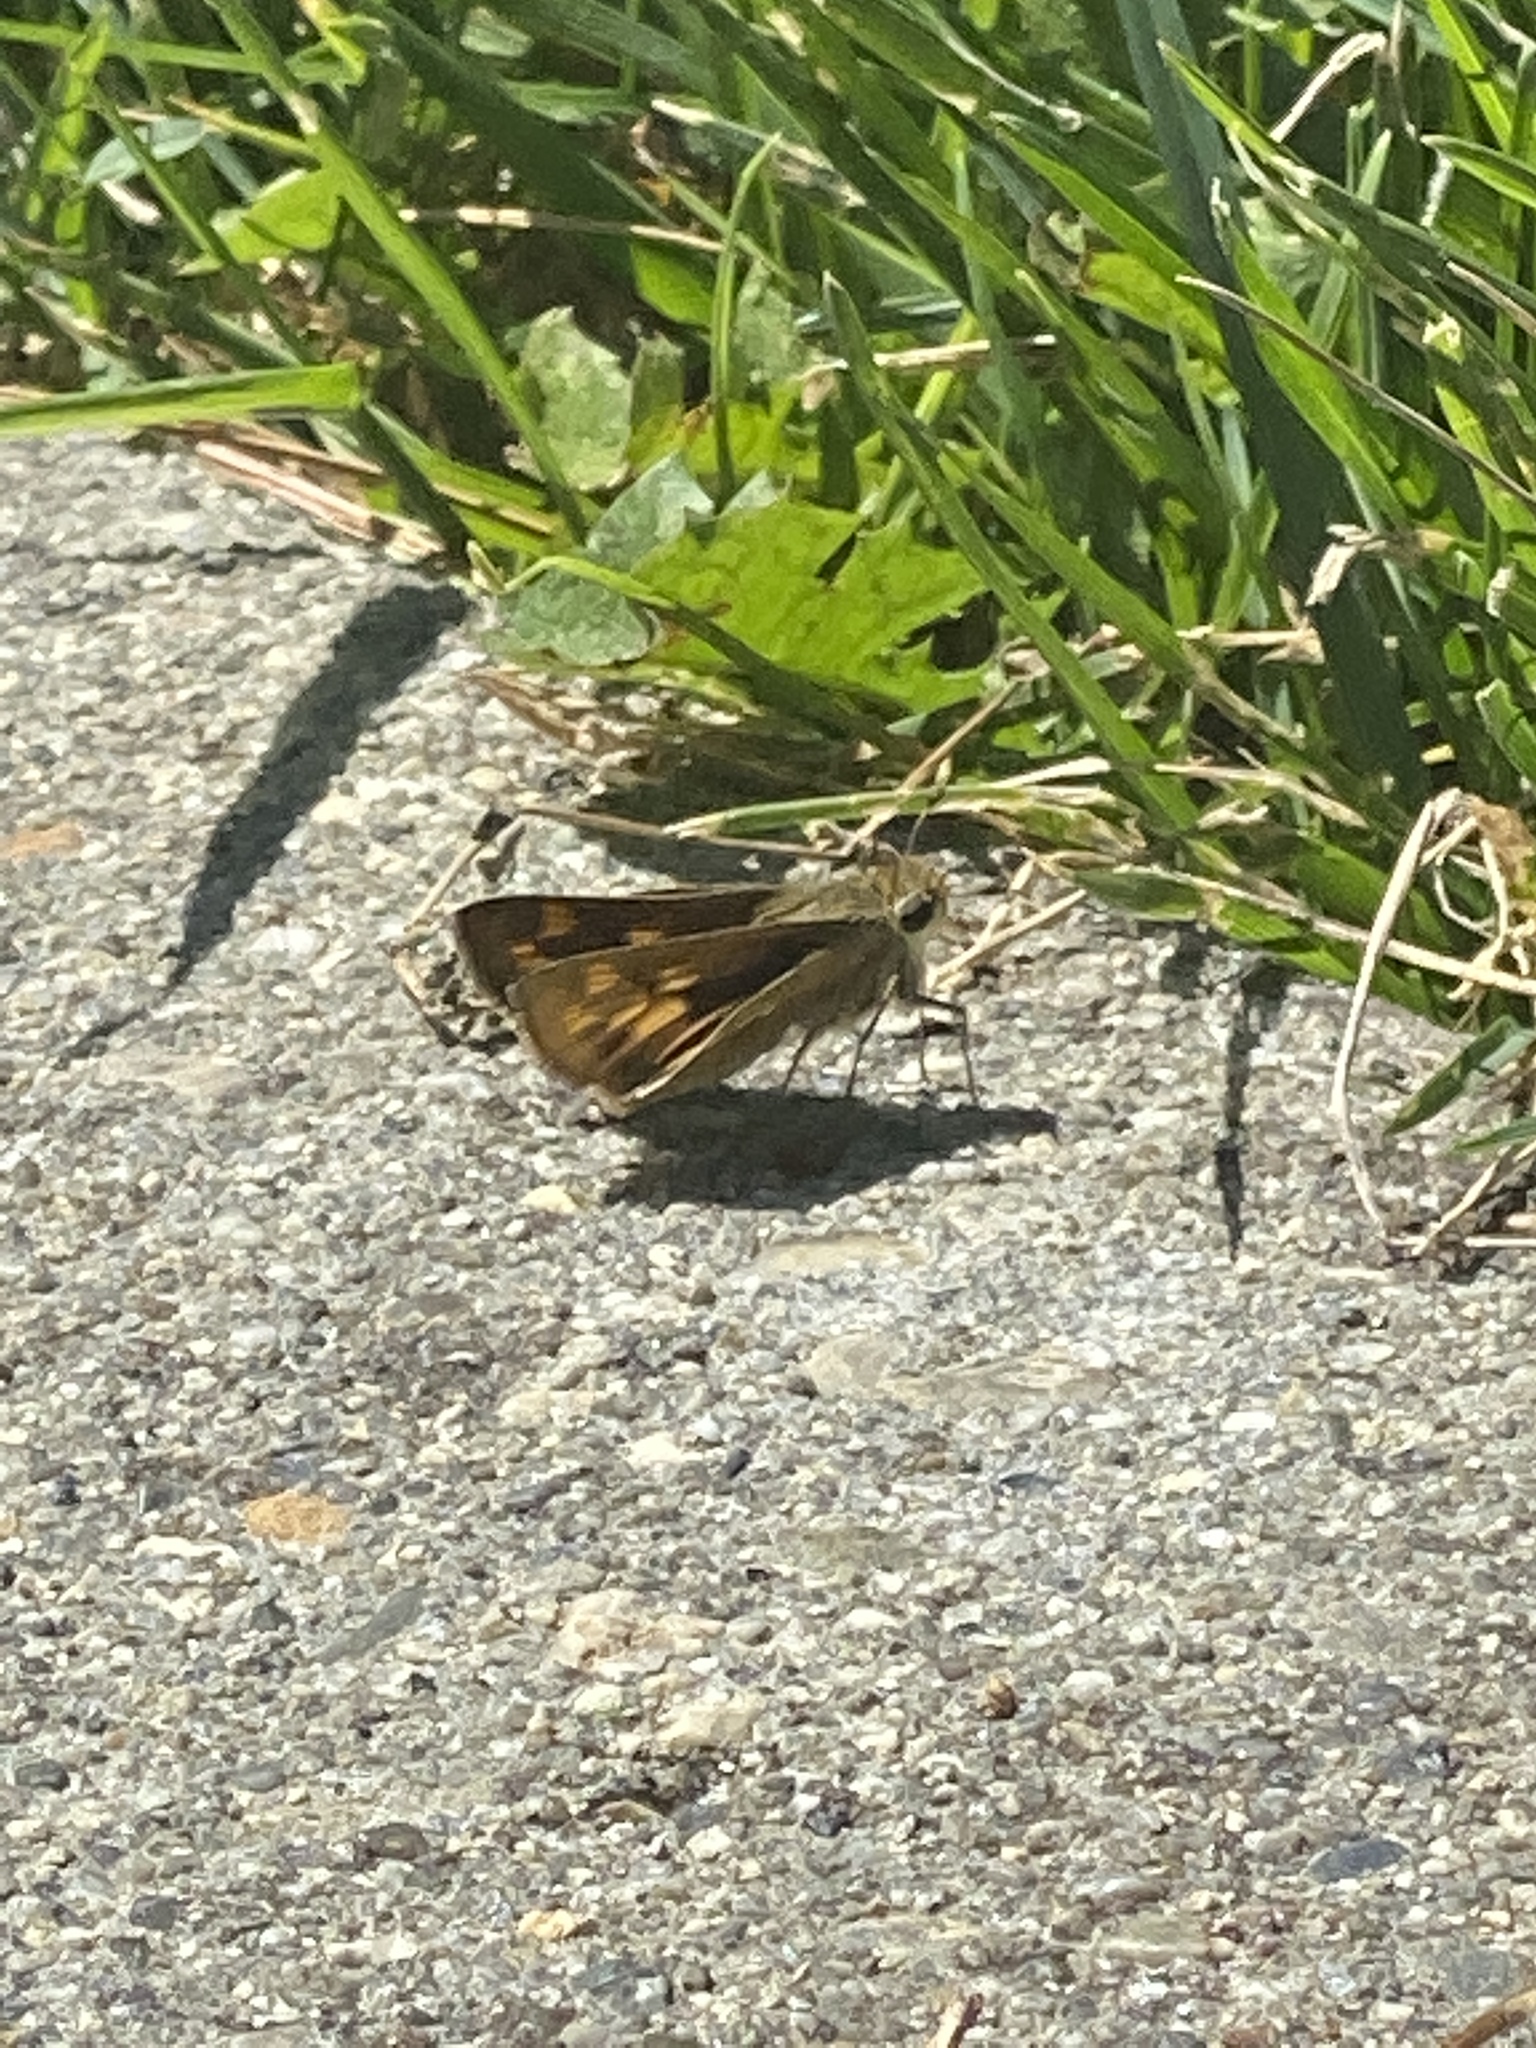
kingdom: Animalia
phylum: Arthropoda
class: Insecta
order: Lepidoptera
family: Hesperiidae
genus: Polites
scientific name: Polites sabuleti
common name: Sandhill skipper
